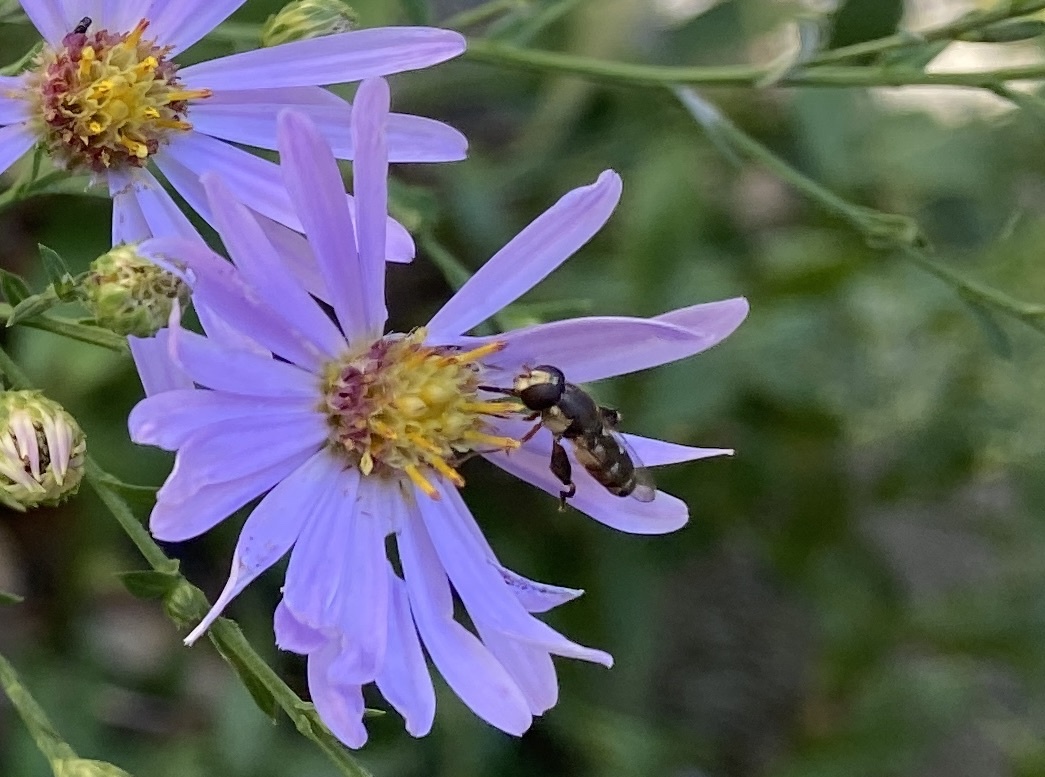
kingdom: Animalia
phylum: Arthropoda
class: Insecta
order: Diptera
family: Syrphidae
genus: Syritta
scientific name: Syritta pipiens
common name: Hover fly
